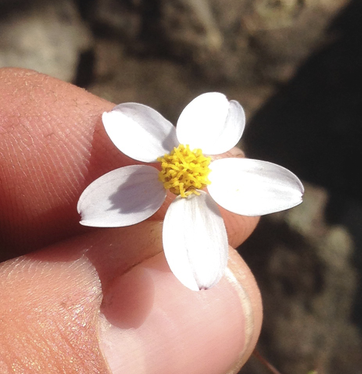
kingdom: Plantae
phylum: Tracheophyta
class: Magnoliopsida
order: Asterales
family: Asteraceae
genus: Coreocarpus
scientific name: Coreocarpus parthenioides
